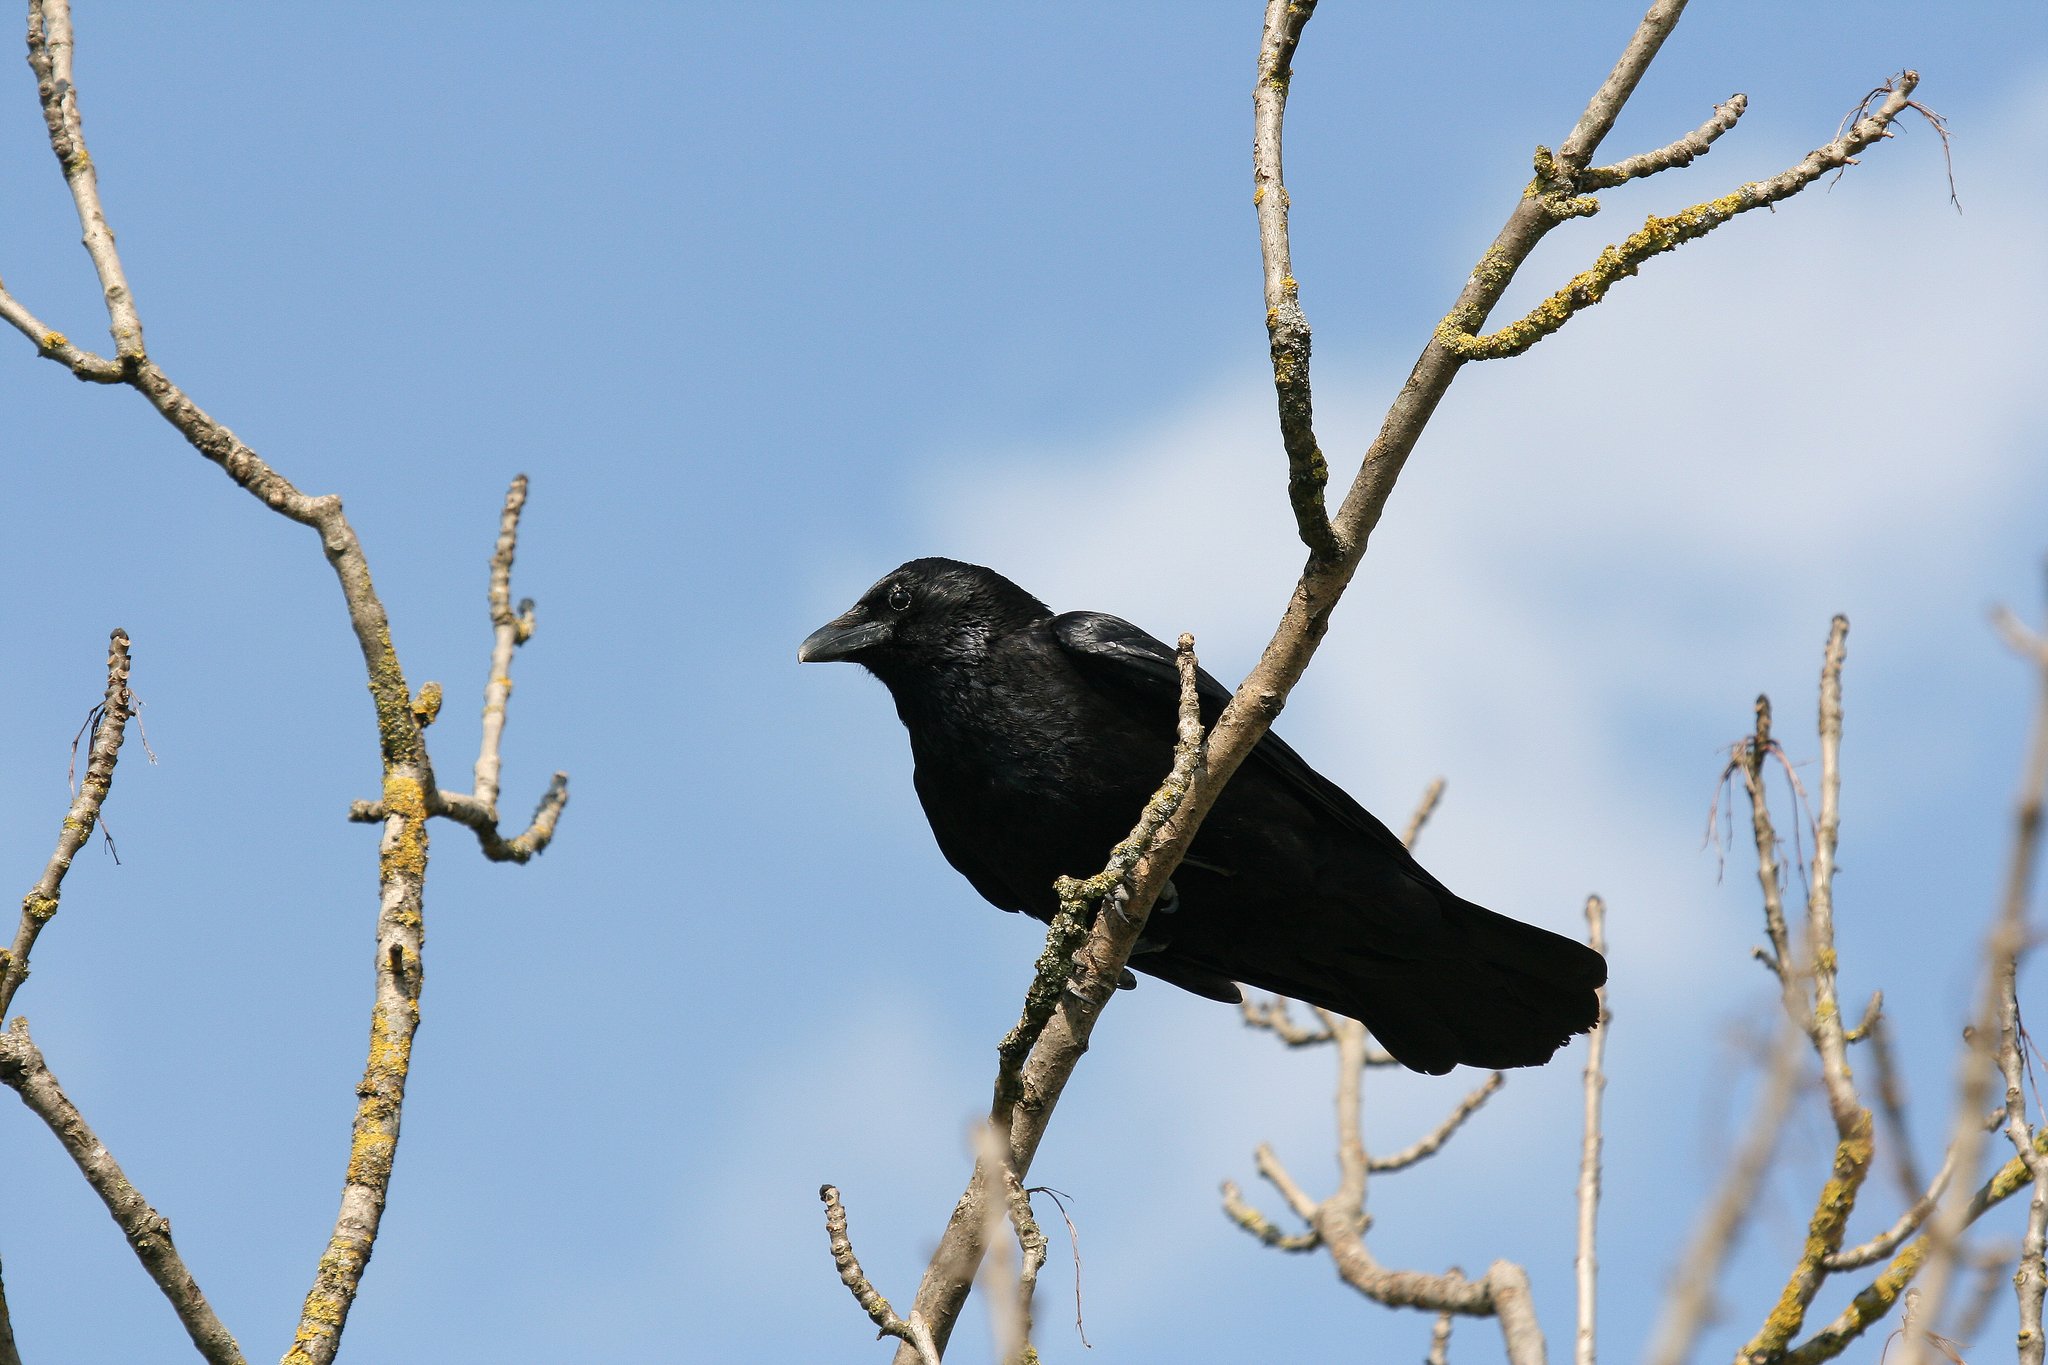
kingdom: Animalia
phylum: Chordata
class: Aves
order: Passeriformes
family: Corvidae
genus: Corvus
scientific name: Corvus corone
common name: Carrion crow
